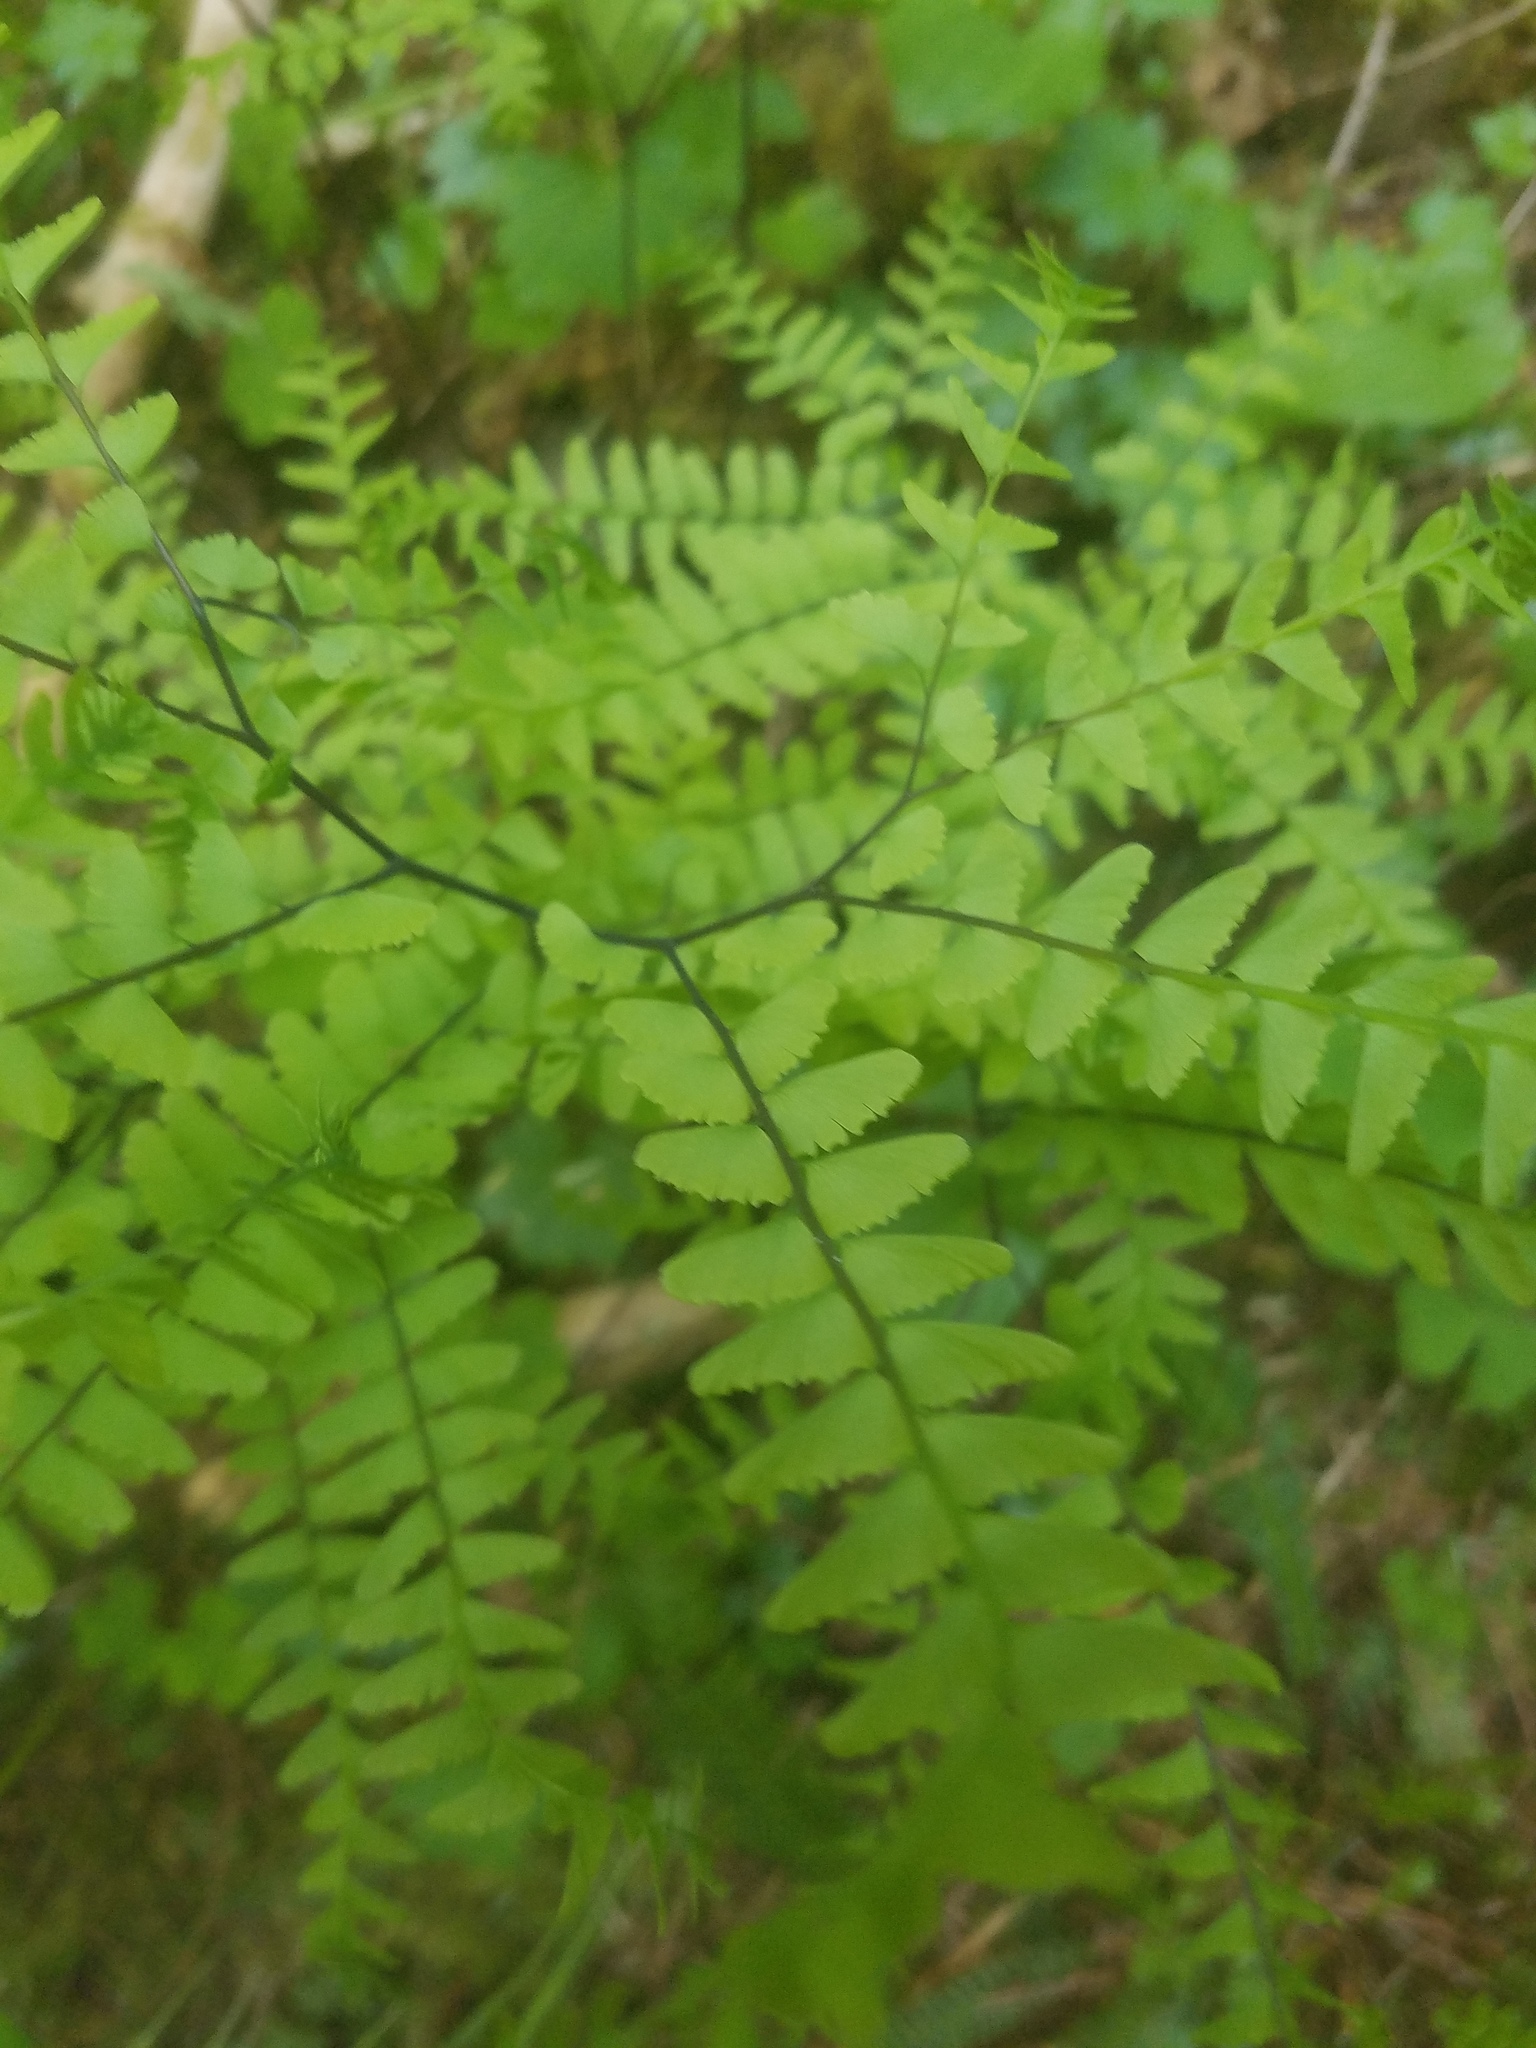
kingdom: Plantae
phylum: Tracheophyta
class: Polypodiopsida
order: Polypodiales
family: Pteridaceae
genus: Adiantum
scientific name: Adiantum aleuticum
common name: Aleutian maidenhair fern
